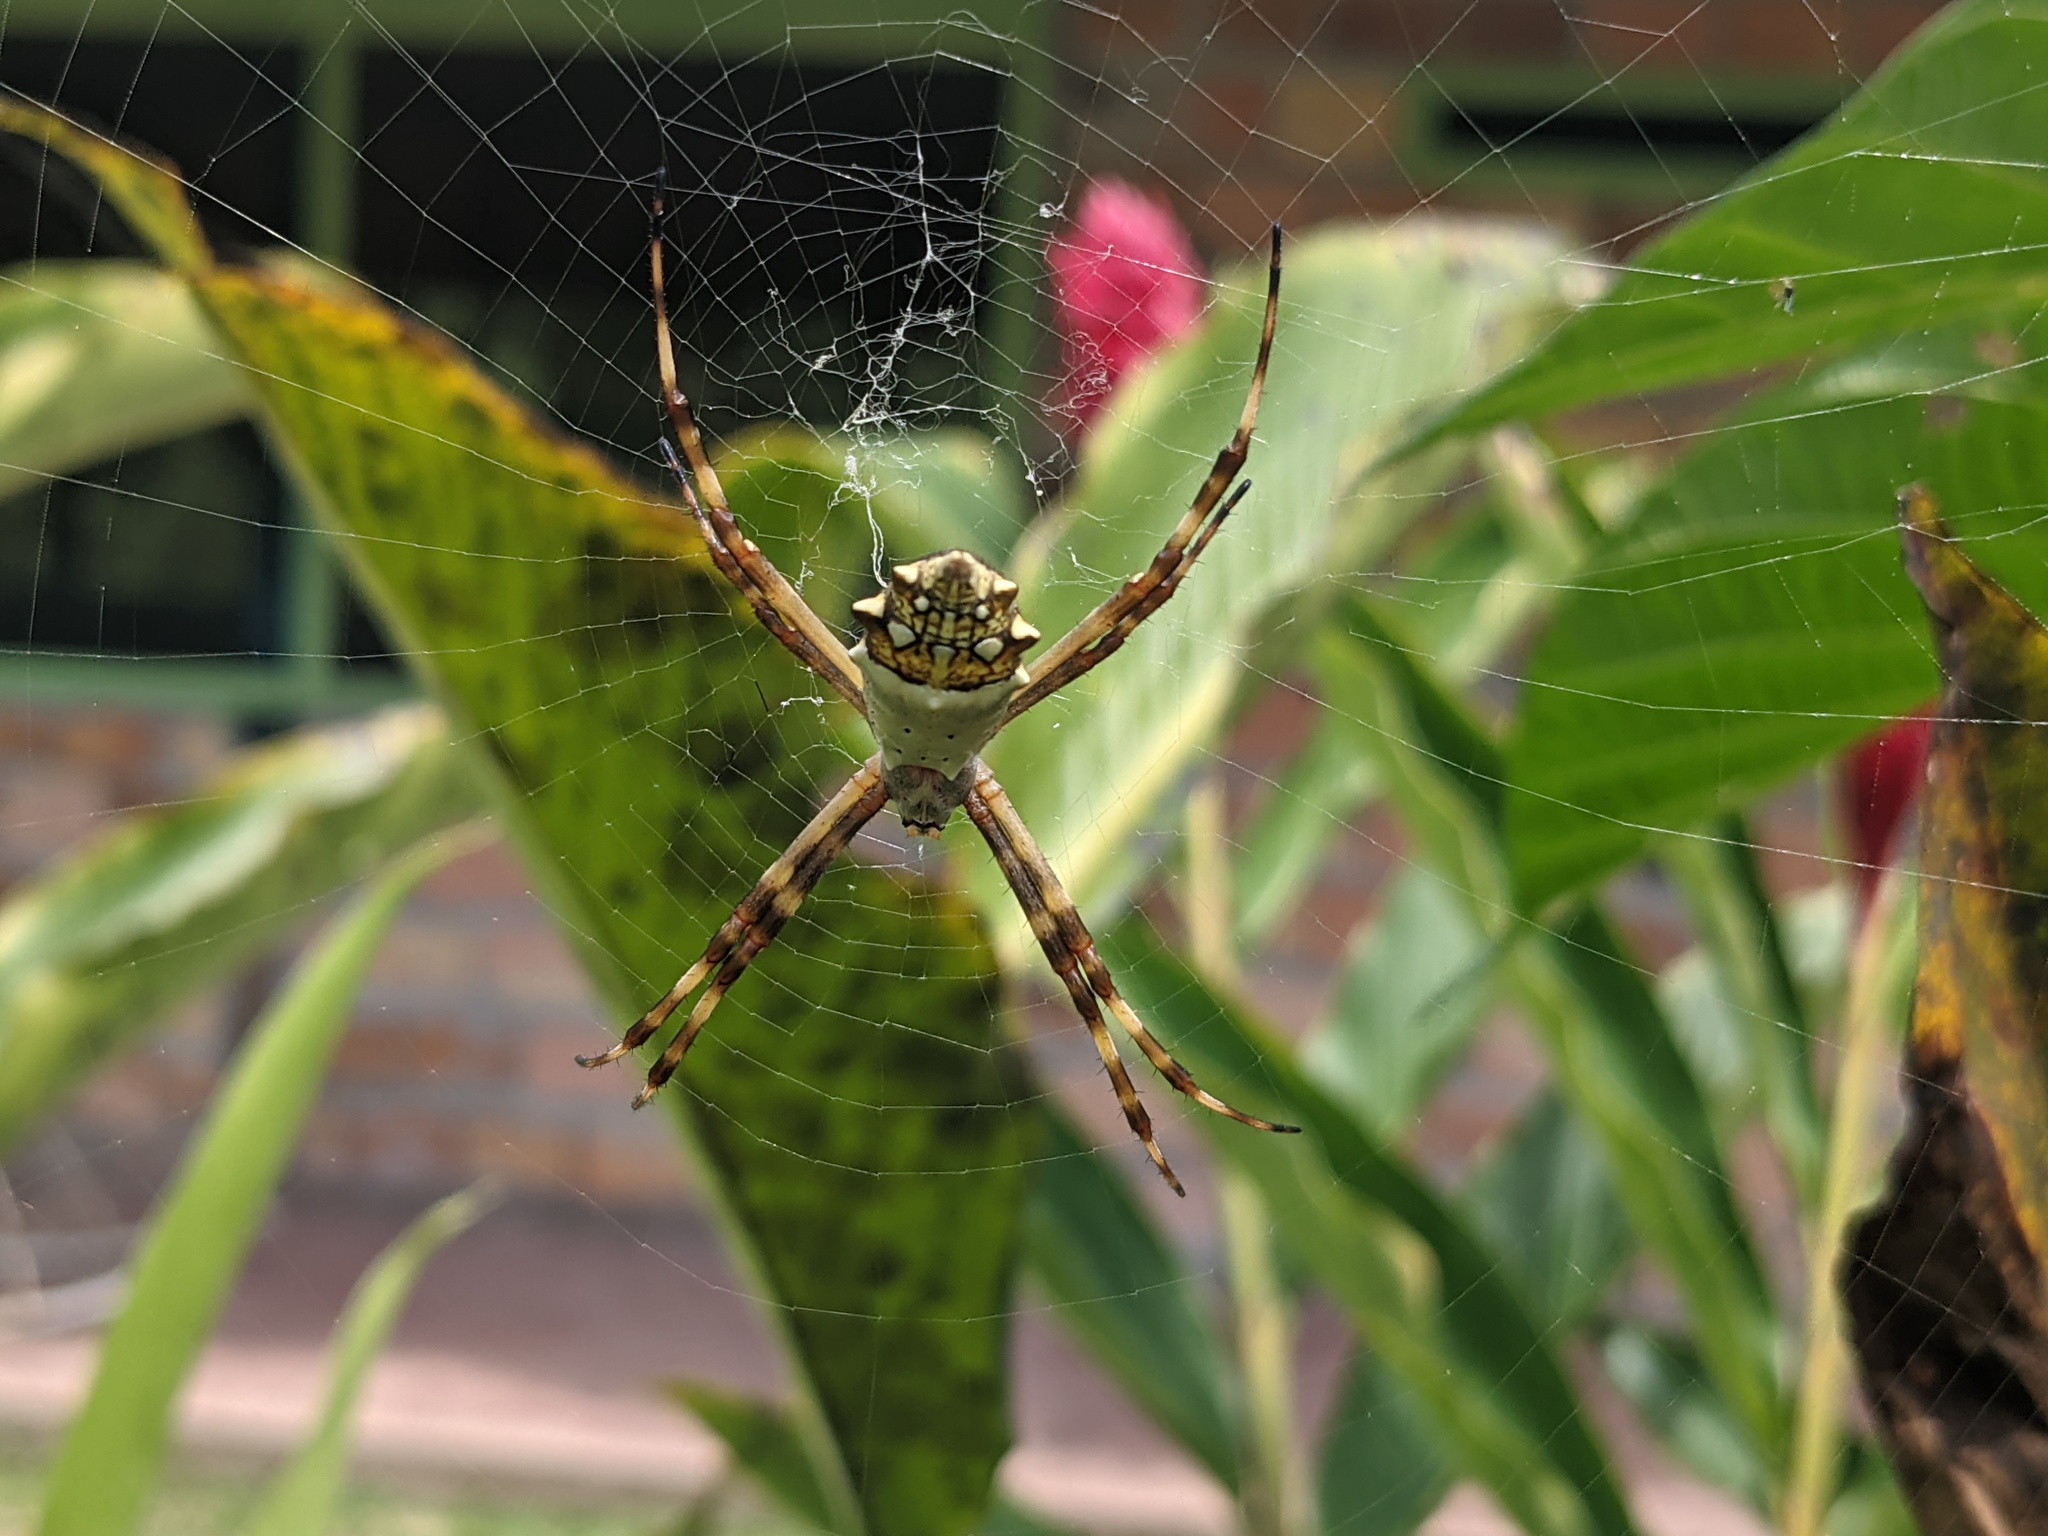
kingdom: Animalia
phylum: Arthropoda
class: Arachnida
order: Araneae
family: Araneidae
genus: Argiope
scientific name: Argiope argentata
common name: Orb weavers
